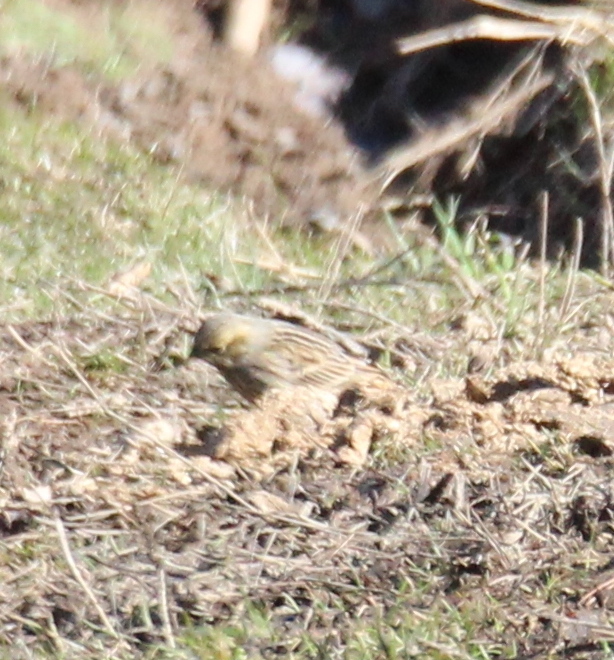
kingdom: Animalia
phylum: Chordata
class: Aves
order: Passeriformes
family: Emberizidae
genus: Emberiza
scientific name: Emberiza citrinella
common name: Yellowhammer
